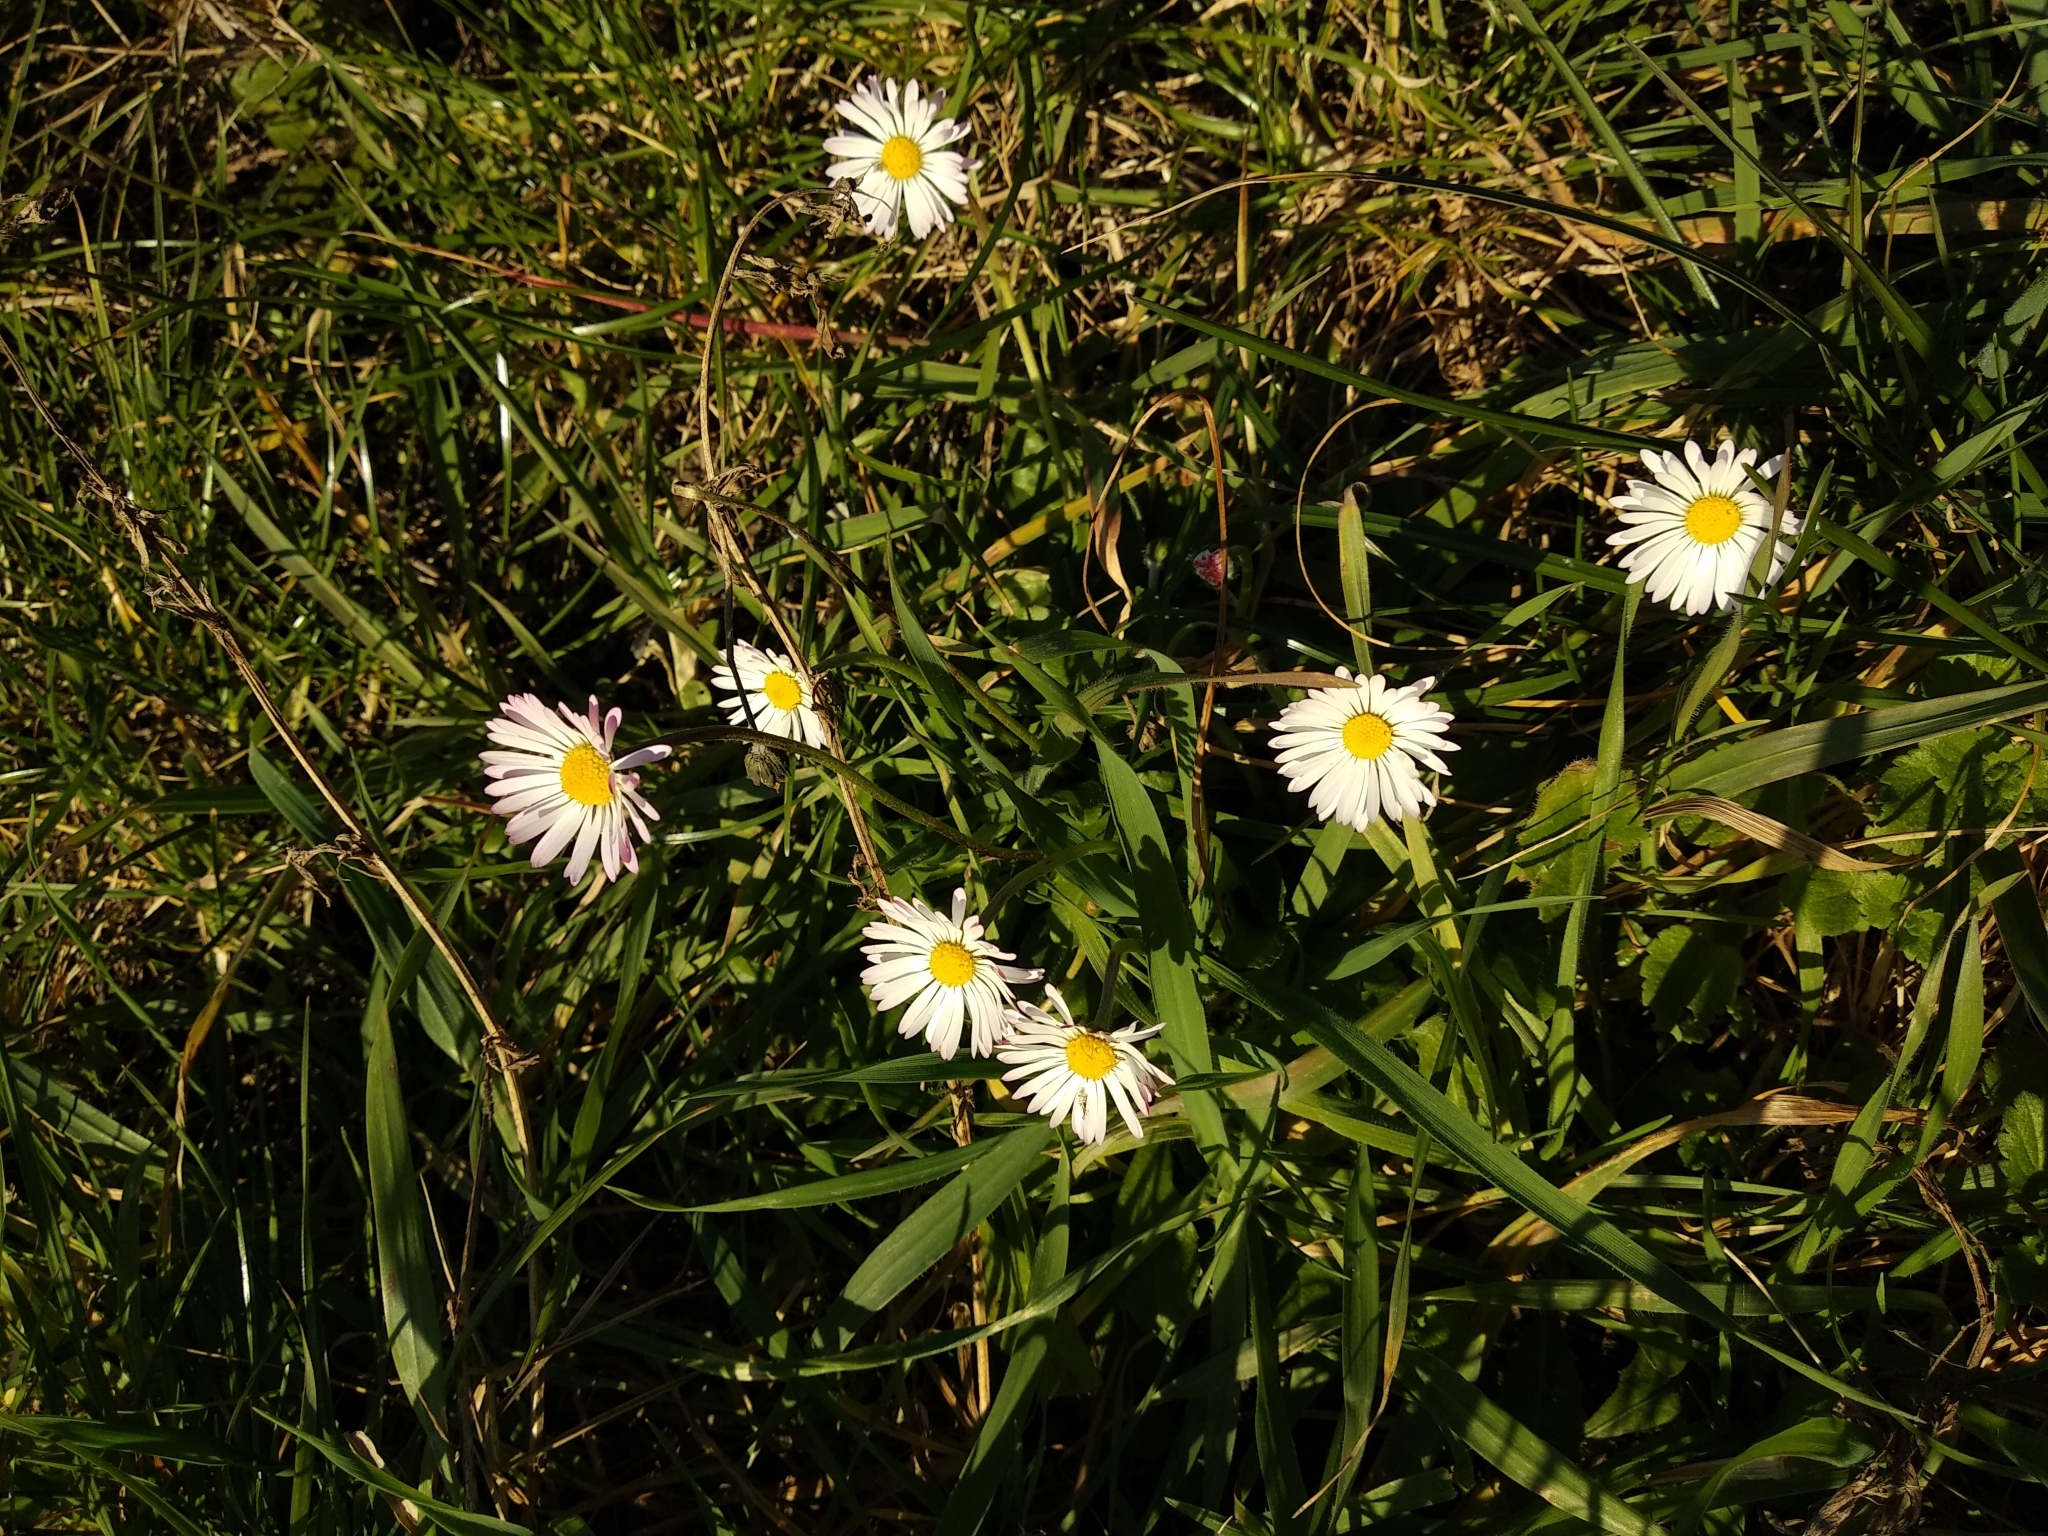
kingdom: Plantae
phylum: Tracheophyta
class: Magnoliopsida
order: Asterales
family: Asteraceae
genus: Bellis
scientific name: Bellis perennis
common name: Lawndaisy
